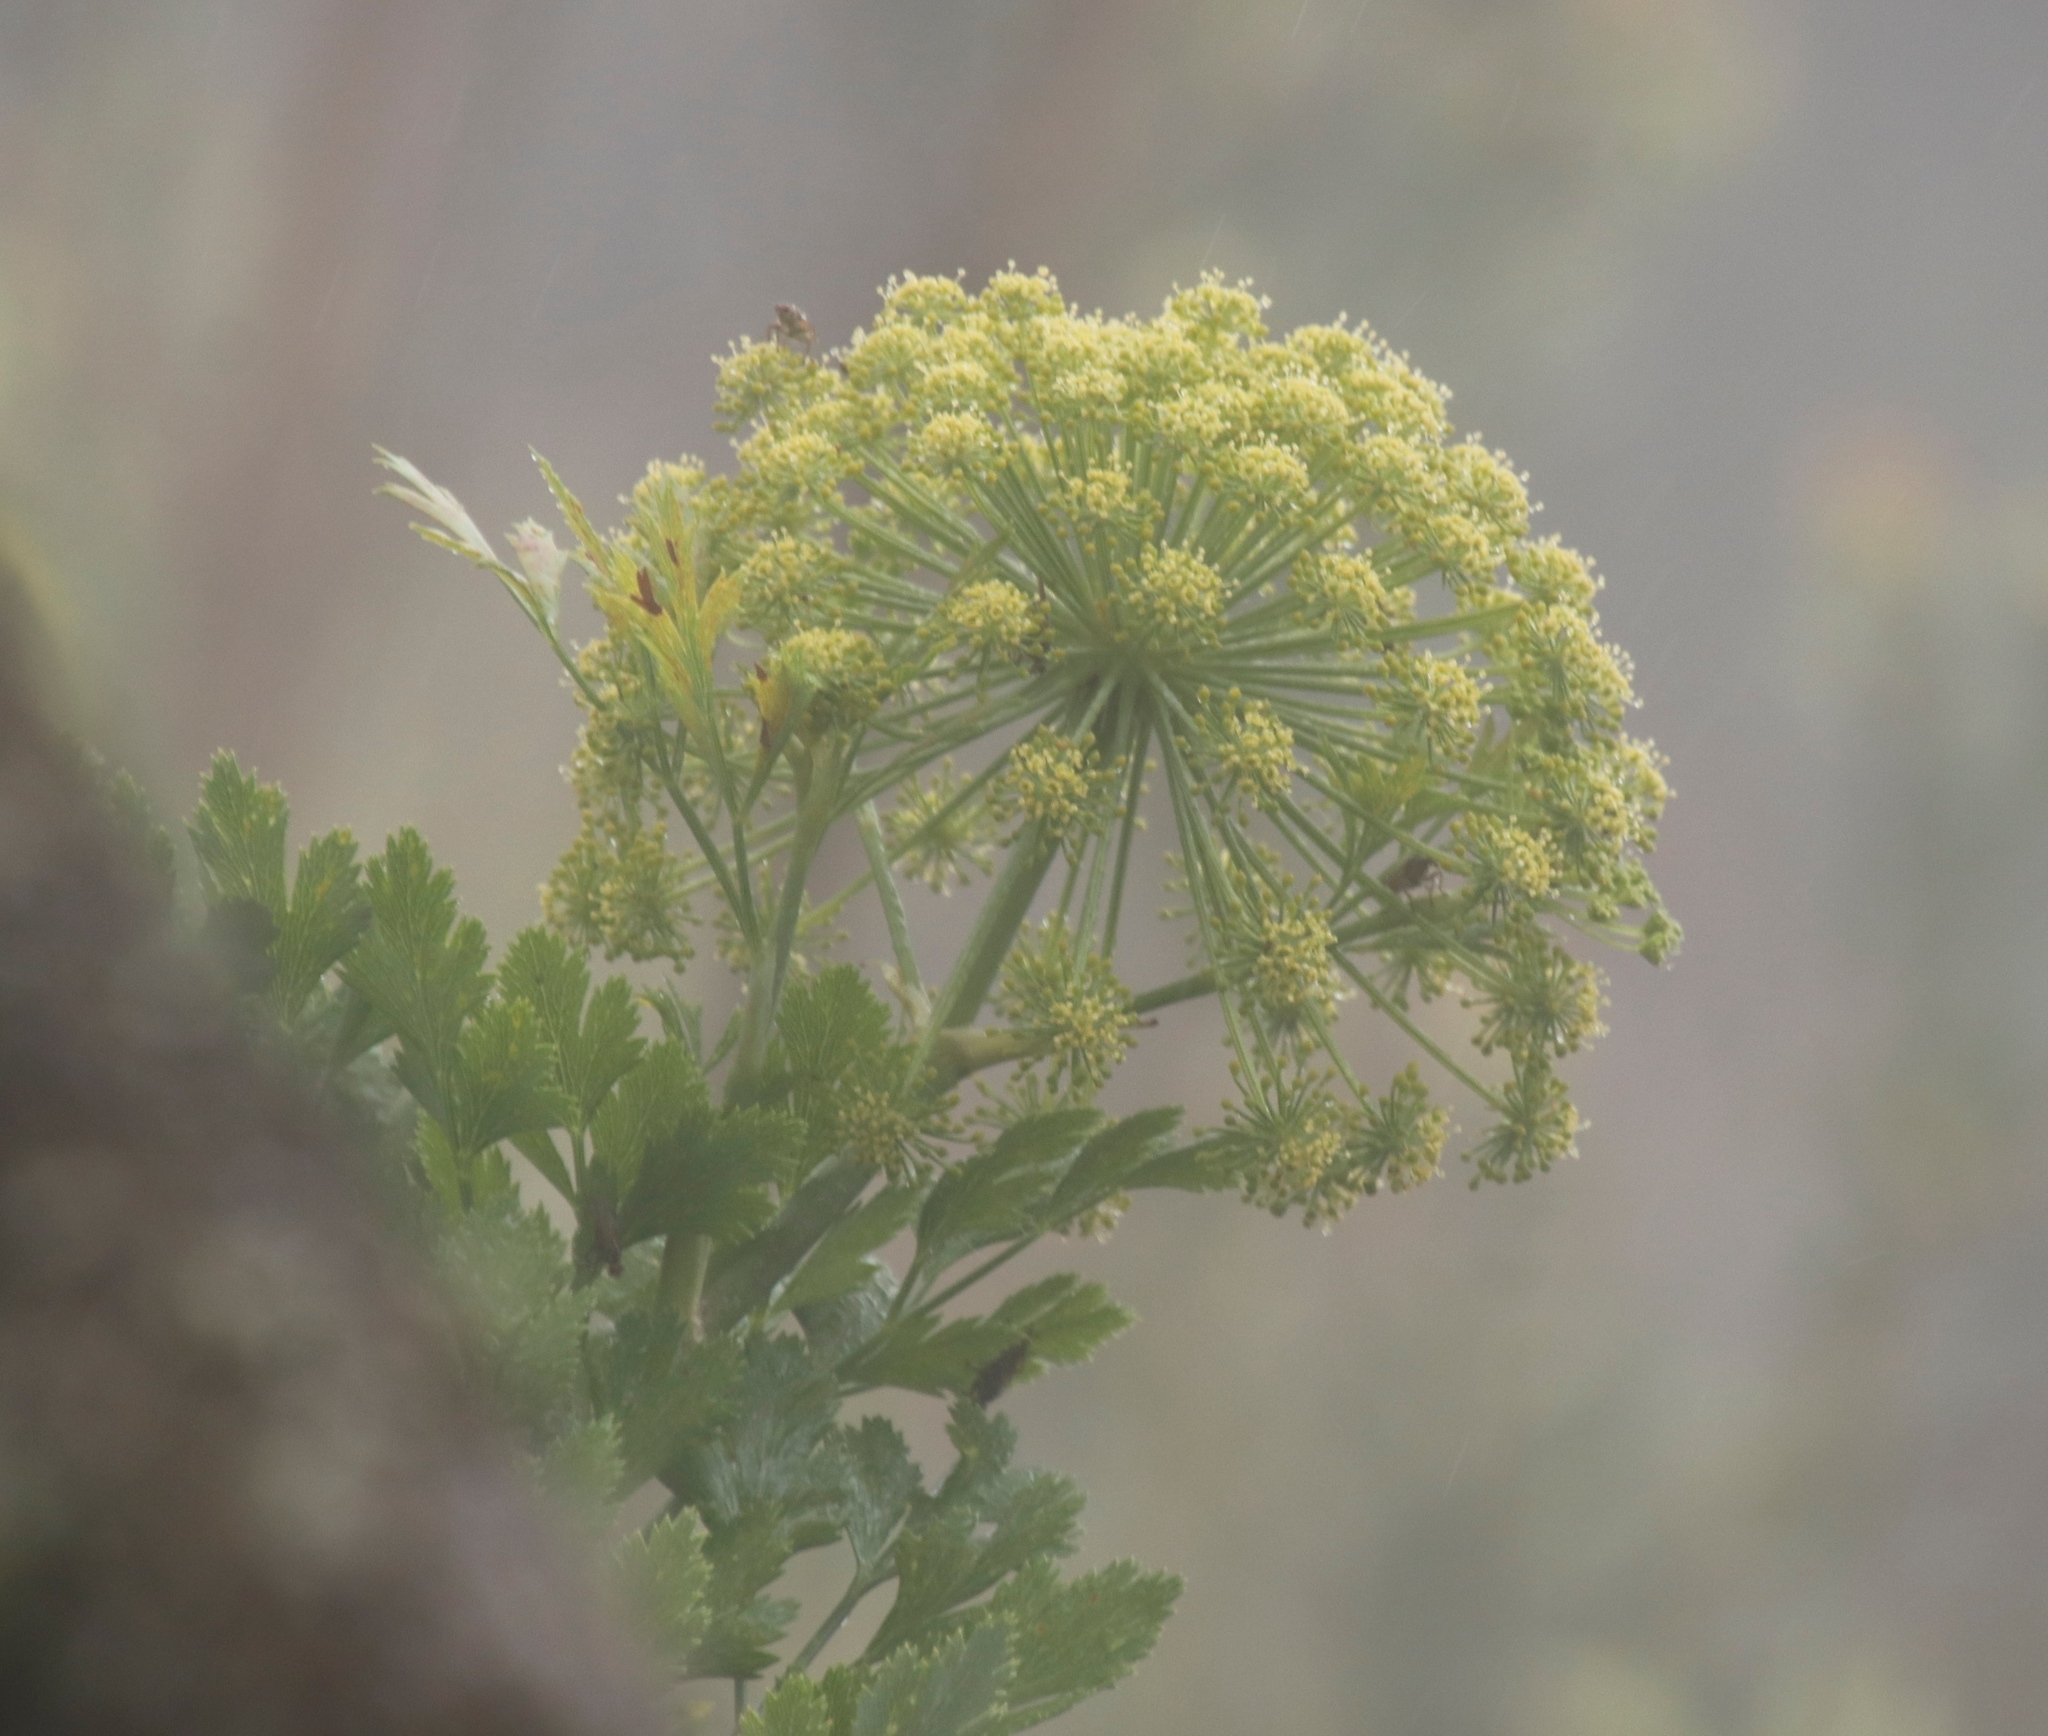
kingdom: Plantae
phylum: Tracheophyta
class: Magnoliopsida
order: Apiales
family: Apiaceae
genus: Notobubon
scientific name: Notobubon galbanum
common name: Blisterbush
